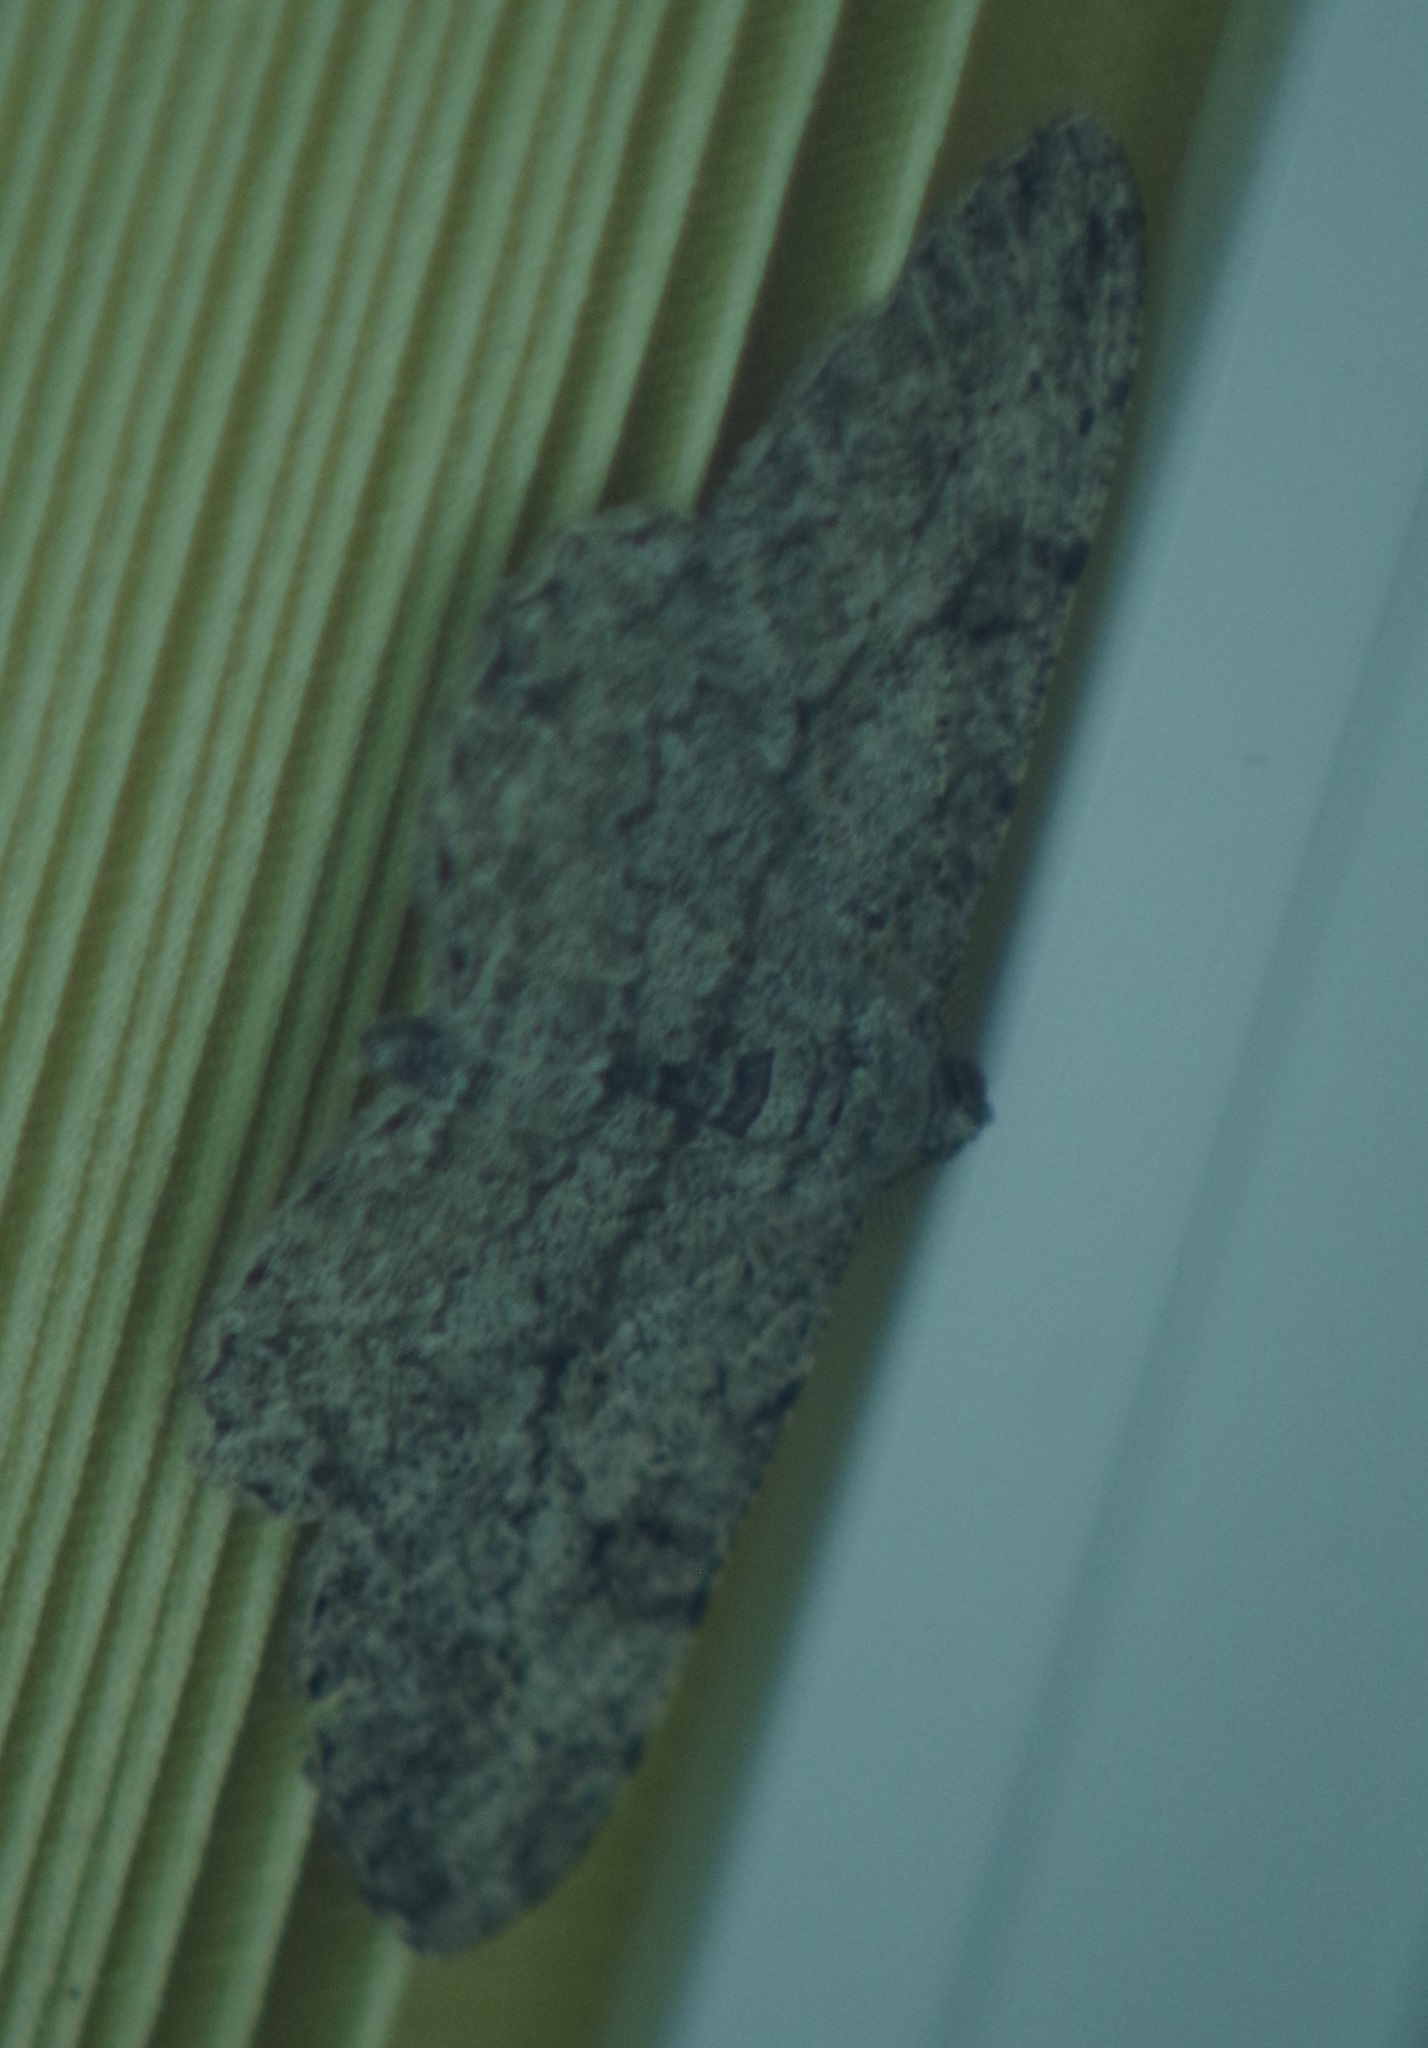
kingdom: Animalia
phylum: Arthropoda
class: Insecta
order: Lepidoptera
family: Geometridae
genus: Peribatodes
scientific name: Peribatodes rhomboidaria
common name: Willow beauty
